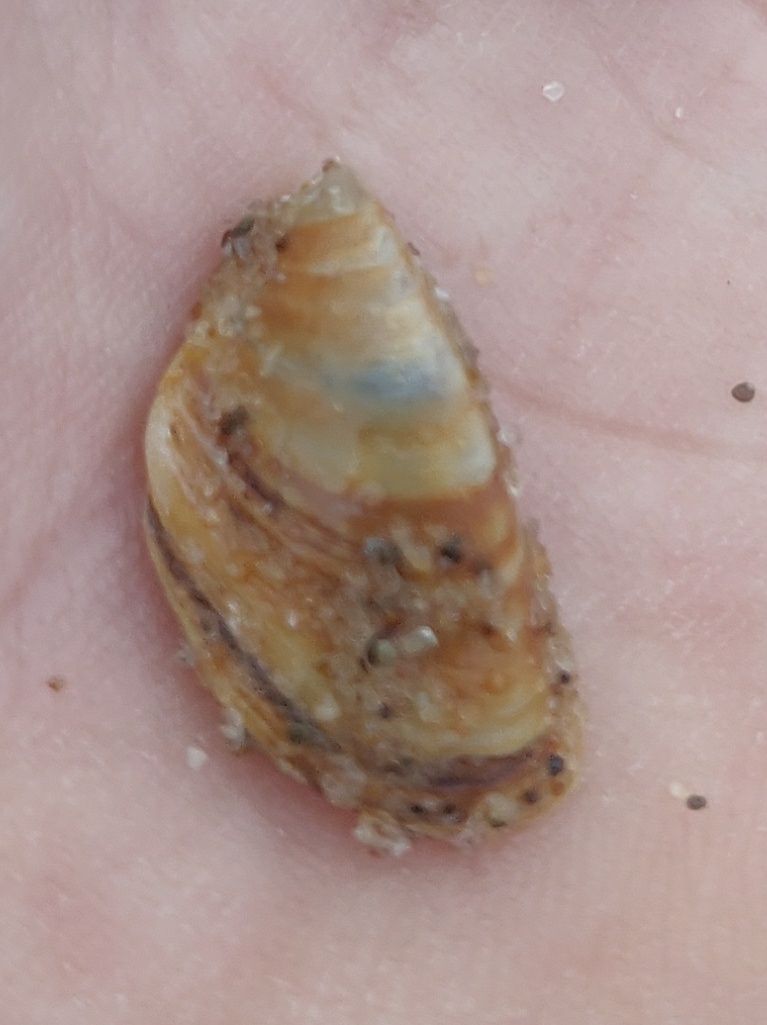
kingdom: Animalia
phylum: Mollusca
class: Bivalvia
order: Myida
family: Dreissenidae
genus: Dreissena
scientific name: Dreissena polymorpha
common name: Zebra mussel
